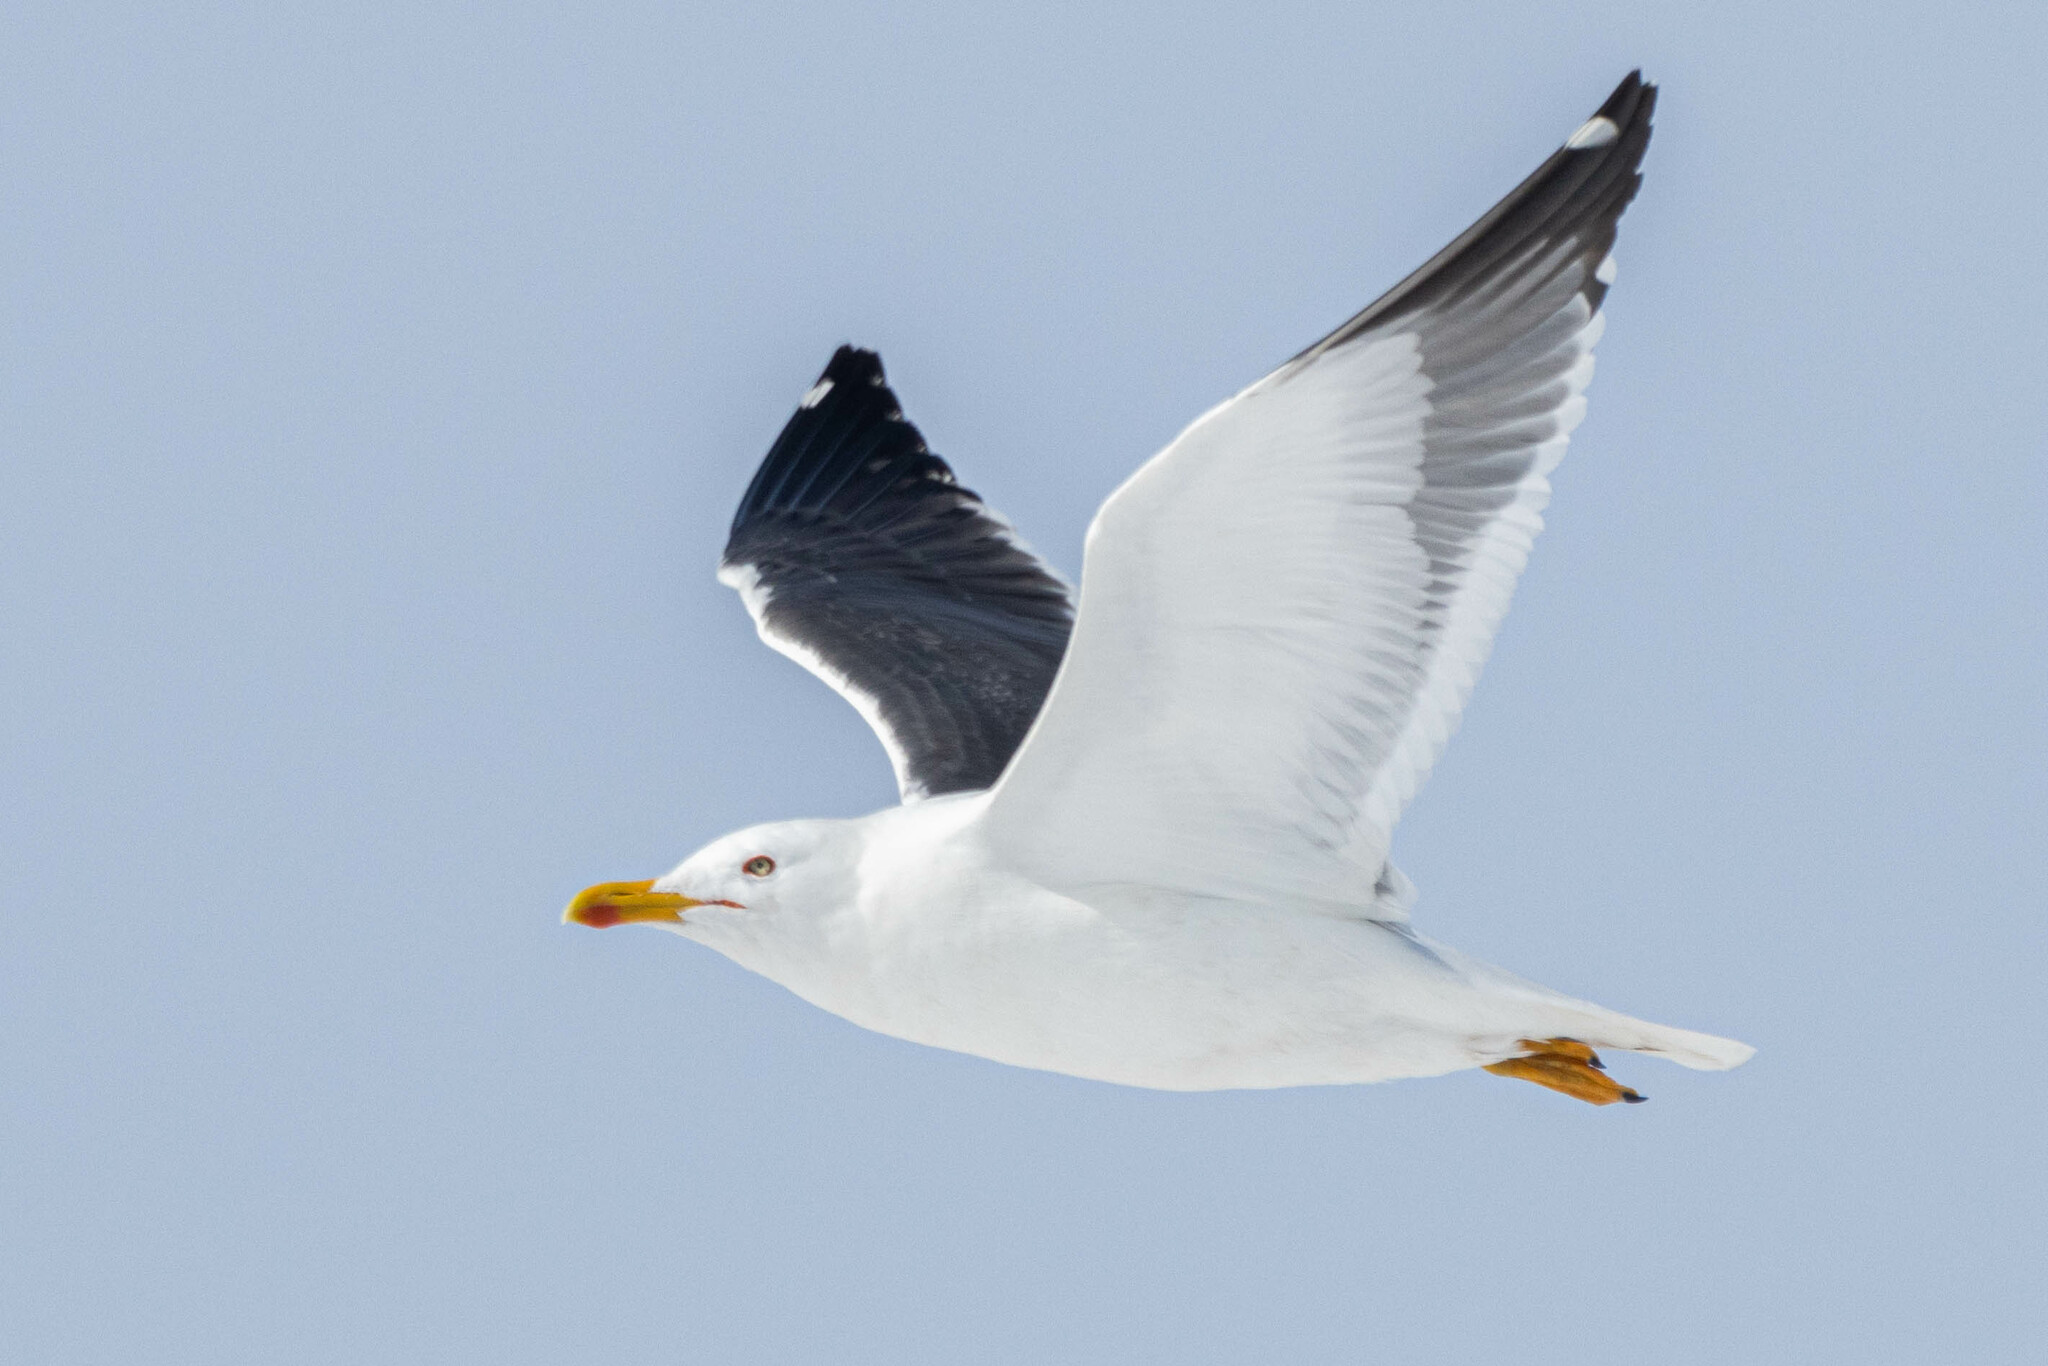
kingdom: Animalia
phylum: Chordata
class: Aves
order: Charadriiformes
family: Laridae
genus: Larus
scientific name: Larus fuscus
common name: Lesser black-backed gull
